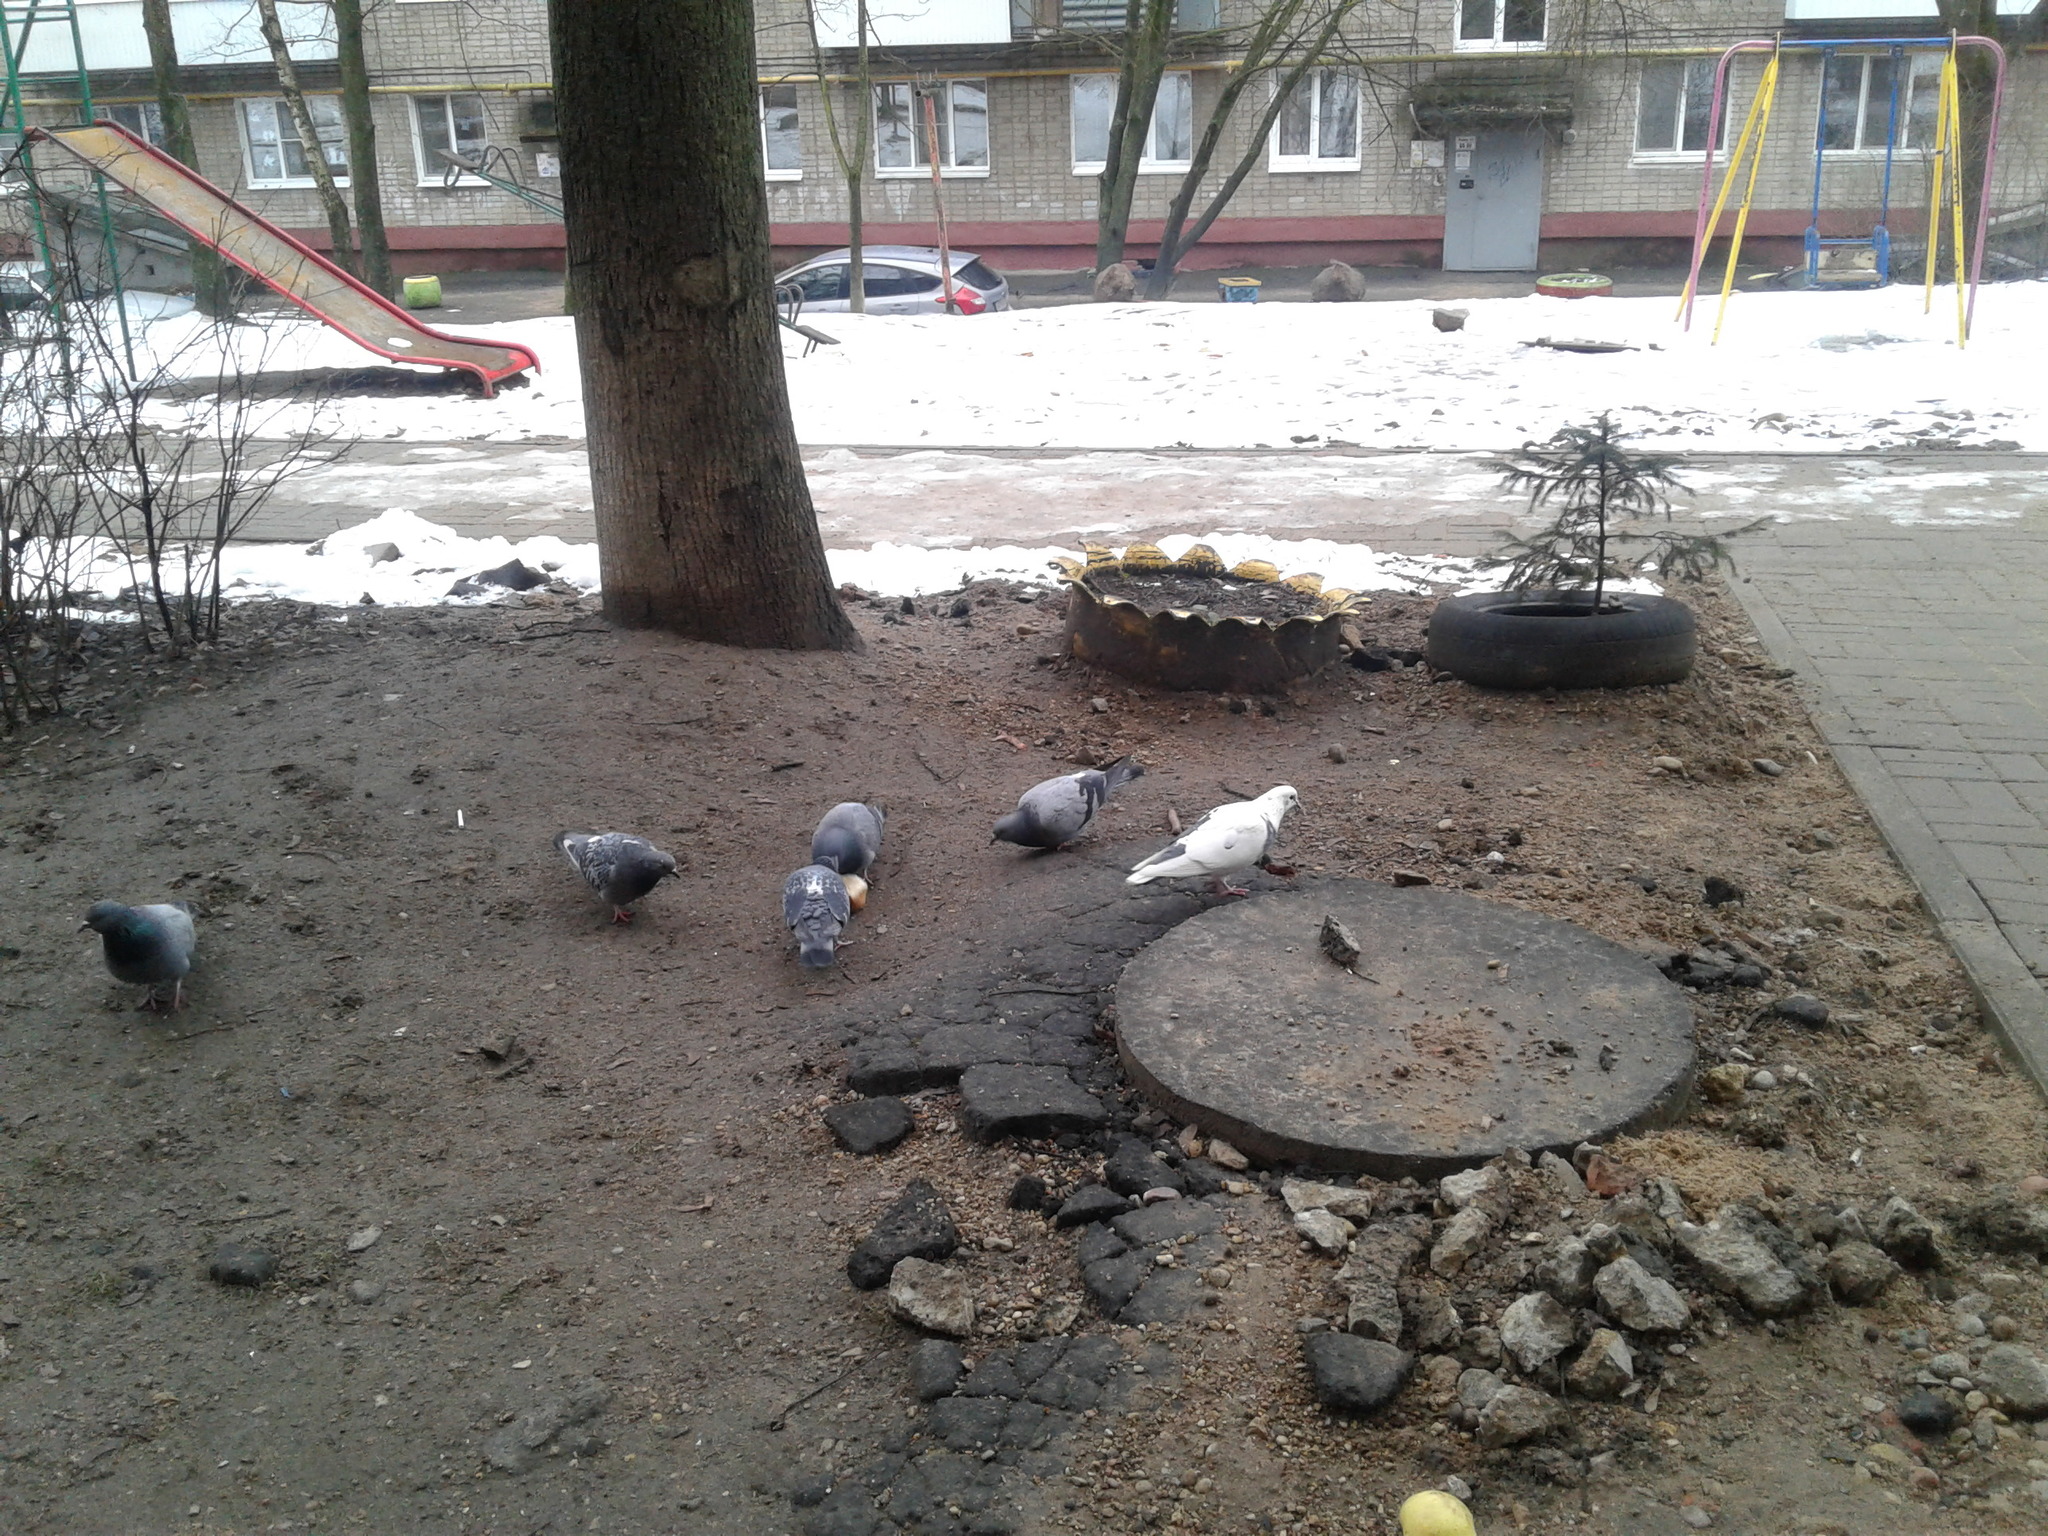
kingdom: Animalia
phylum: Chordata
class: Aves
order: Columbiformes
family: Columbidae
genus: Columba
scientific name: Columba livia
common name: Rock pigeon
